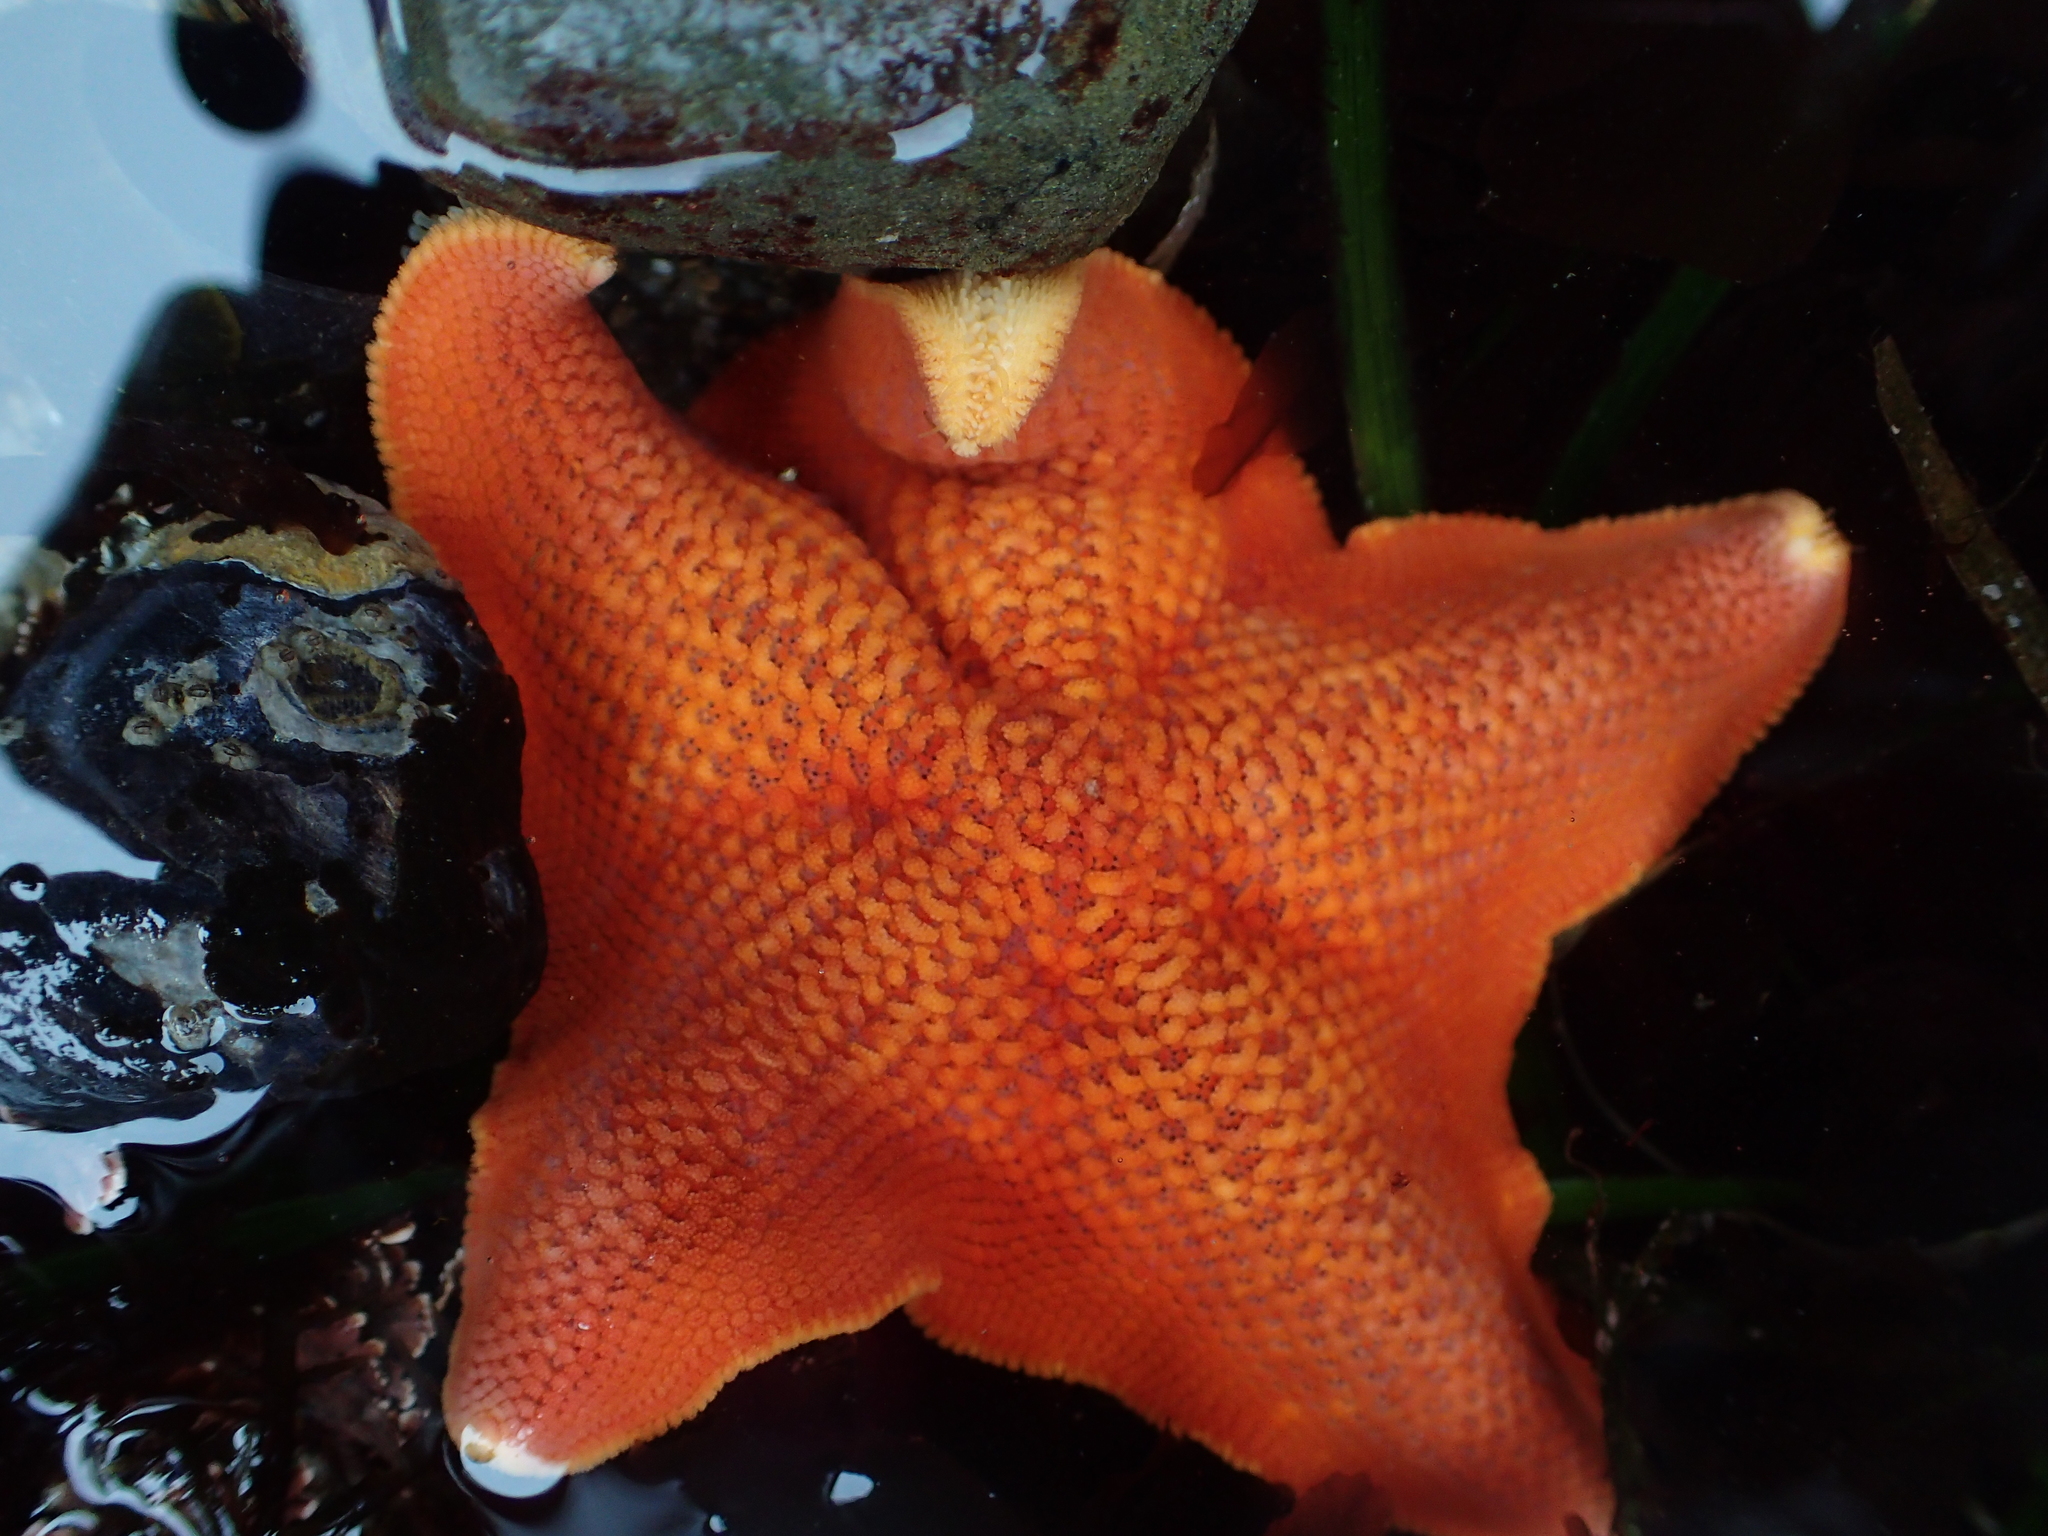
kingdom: Animalia
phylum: Echinodermata
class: Asteroidea
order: Valvatida
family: Asterinidae
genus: Patiria
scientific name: Patiria miniata
